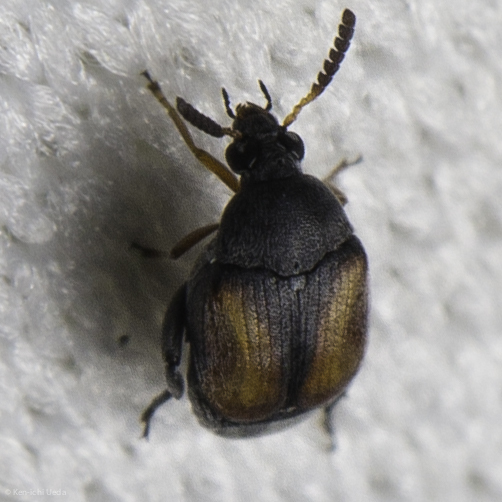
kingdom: Animalia
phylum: Arthropoda
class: Insecta
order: Coleoptera
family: Chrysomelidae
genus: Stator
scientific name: Stator limbatus
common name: Leaf beetle
